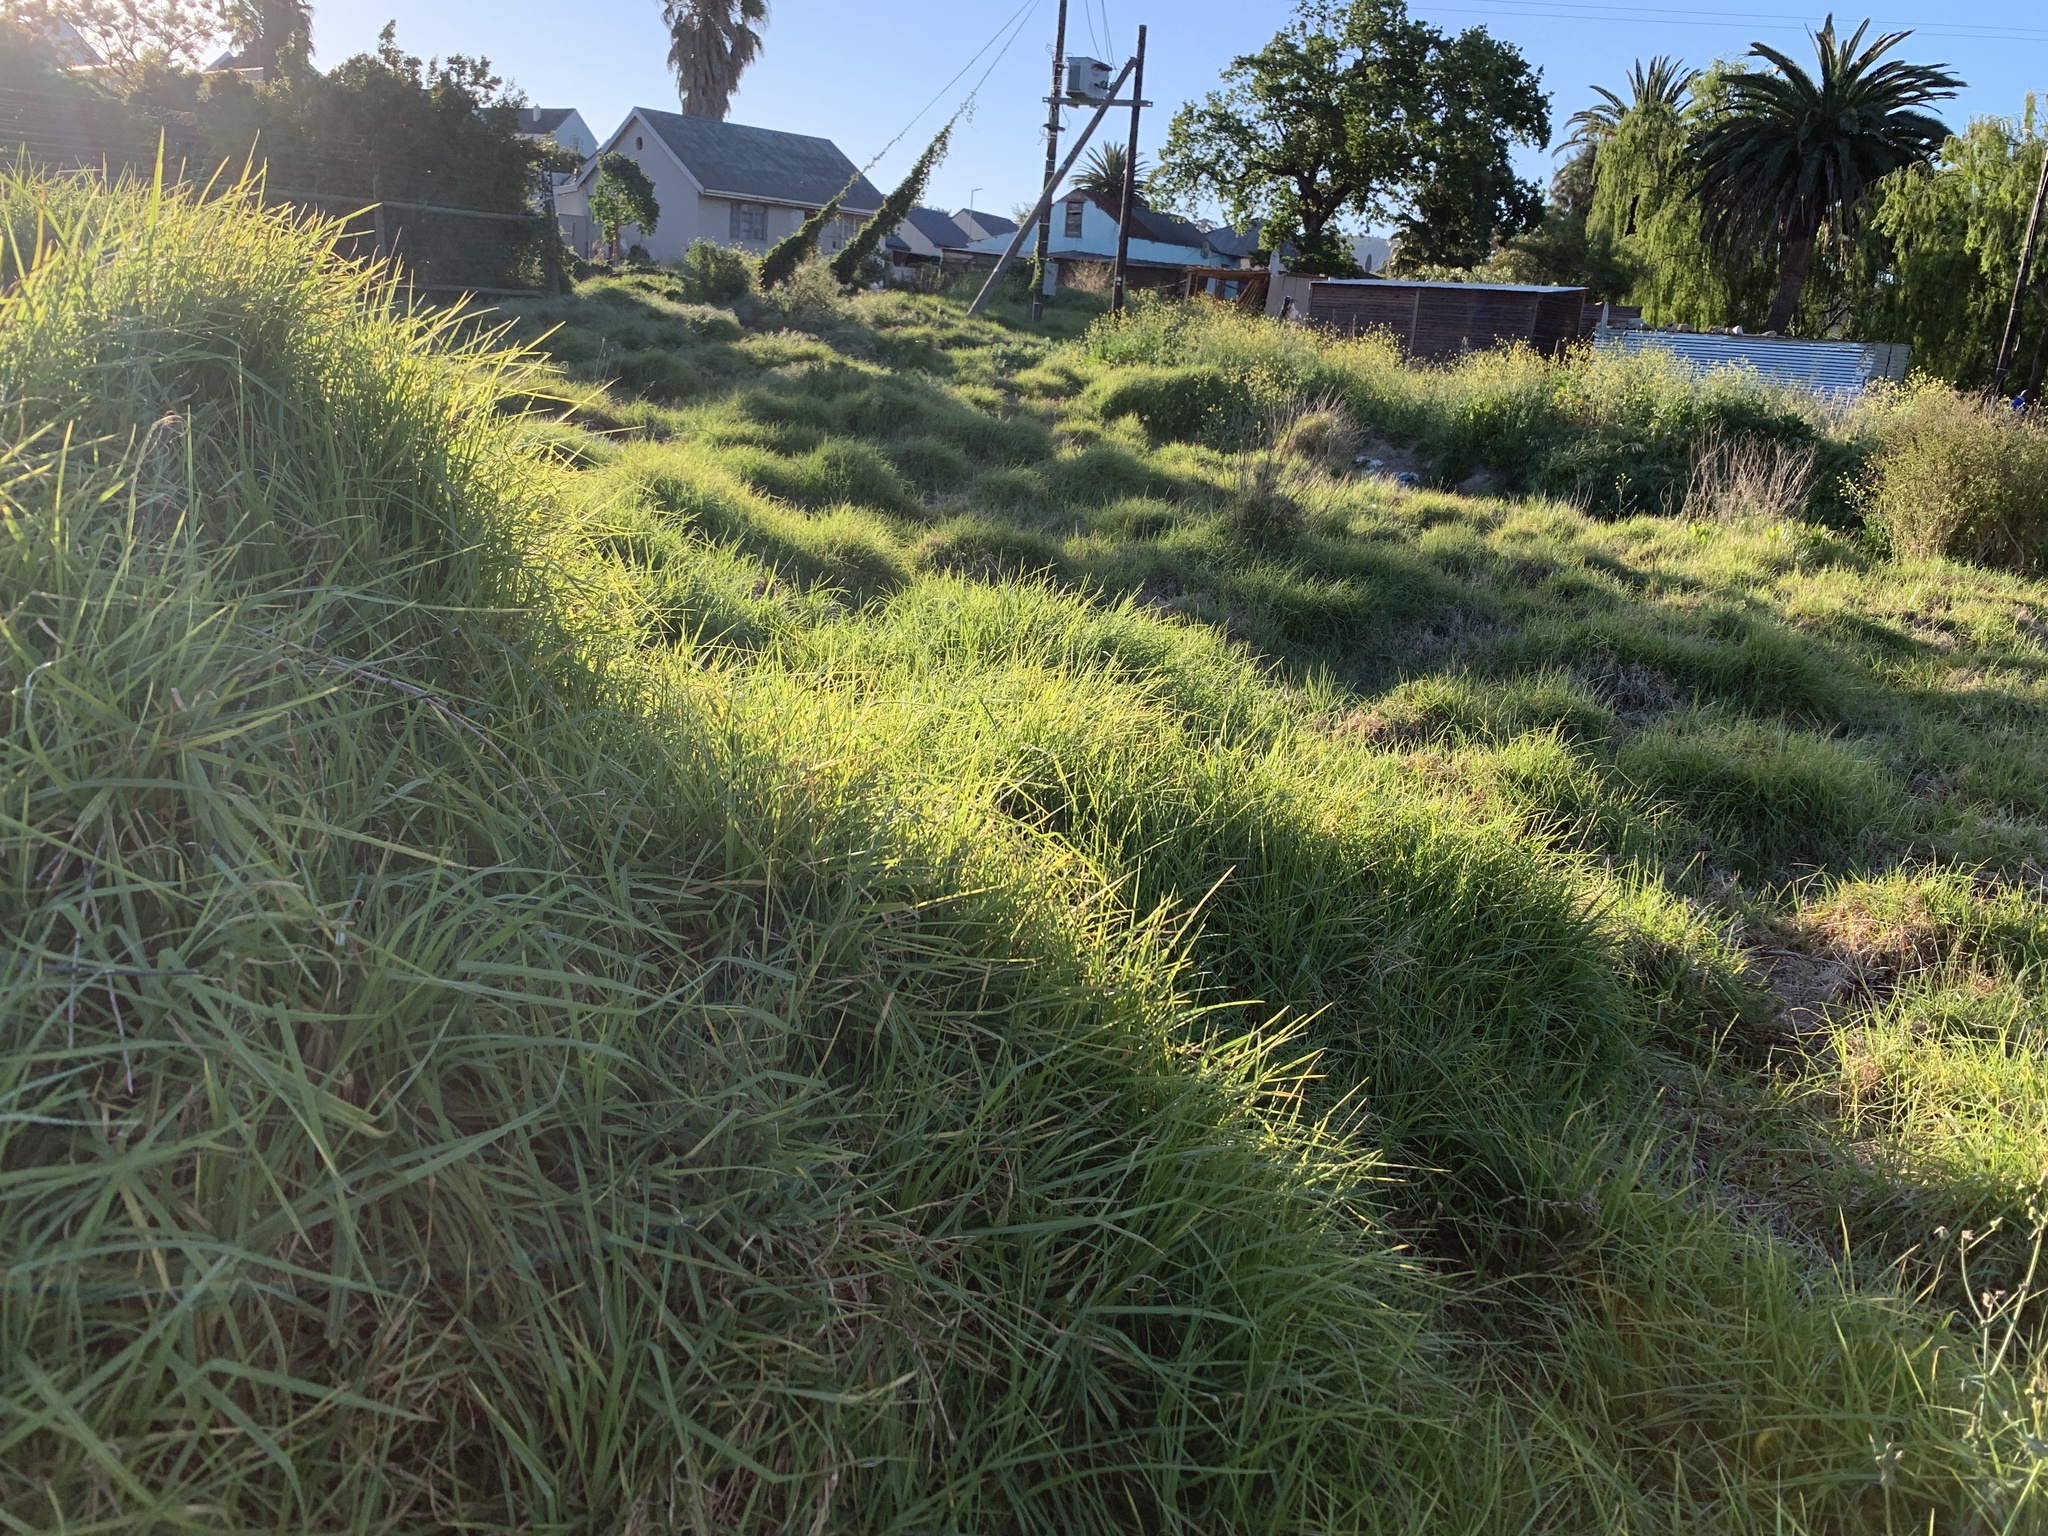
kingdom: Plantae
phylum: Tracheophyta
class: Liliopsida
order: Poales
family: Poaceae
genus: Cenchrus
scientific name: Cenchrus clandestinus
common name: Kikuyugrass
